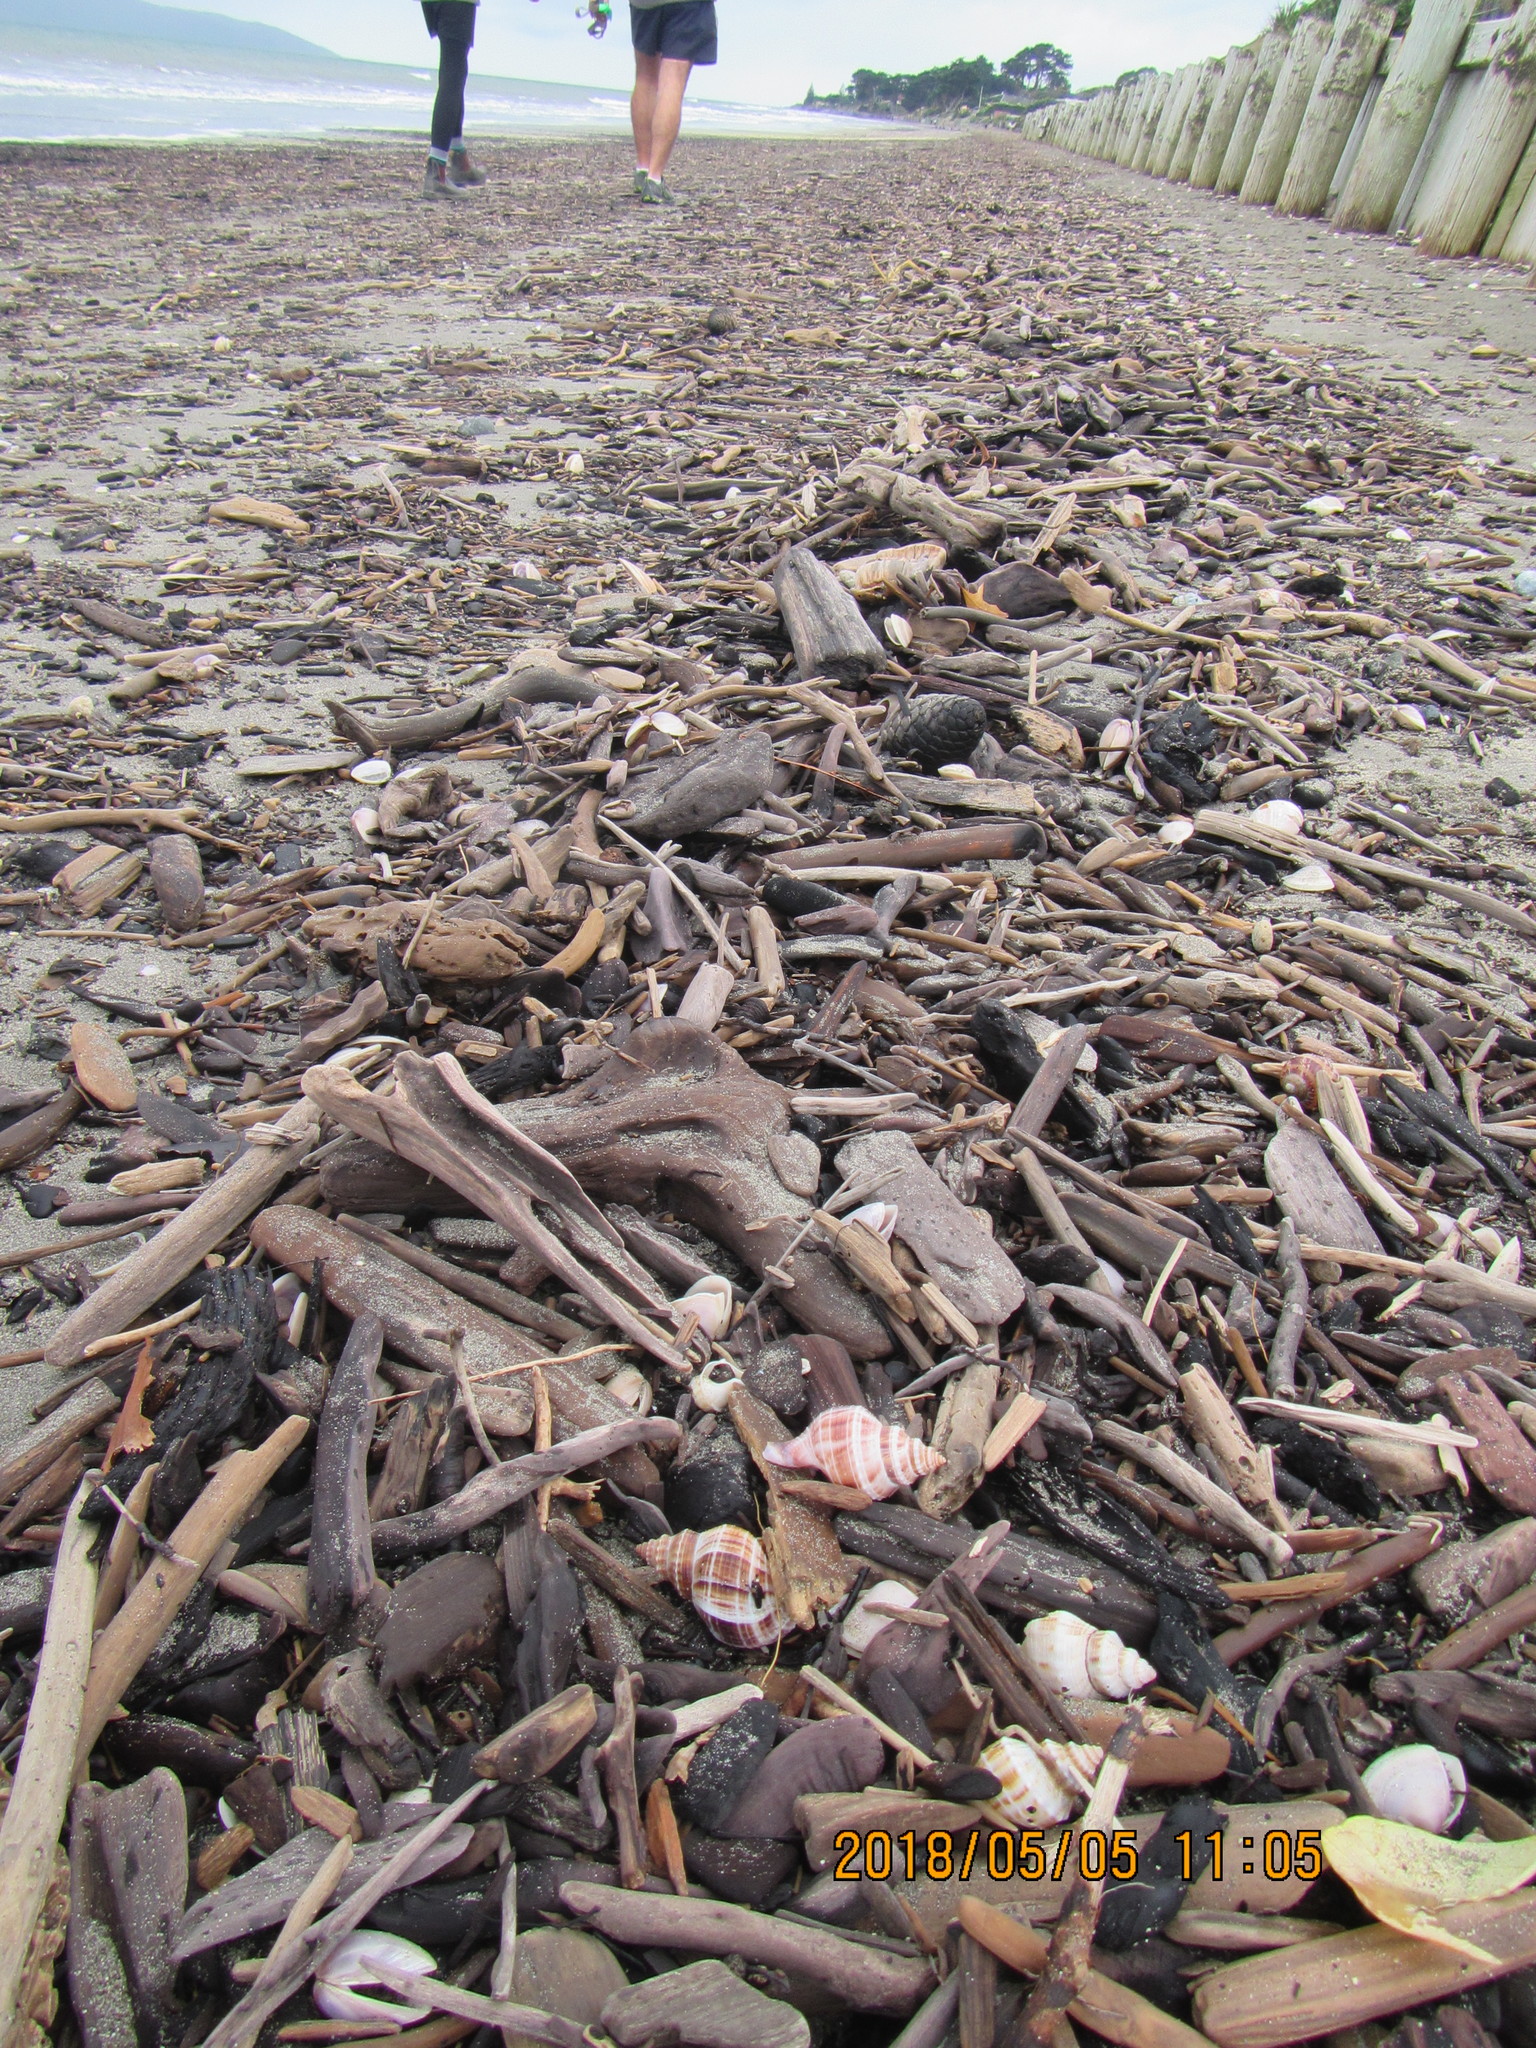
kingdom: Animalia
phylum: Mollusca
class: Gastropoda
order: Neogastropoda
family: Prosiphonidae
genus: Austrofusus
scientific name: Austrofusus glans
